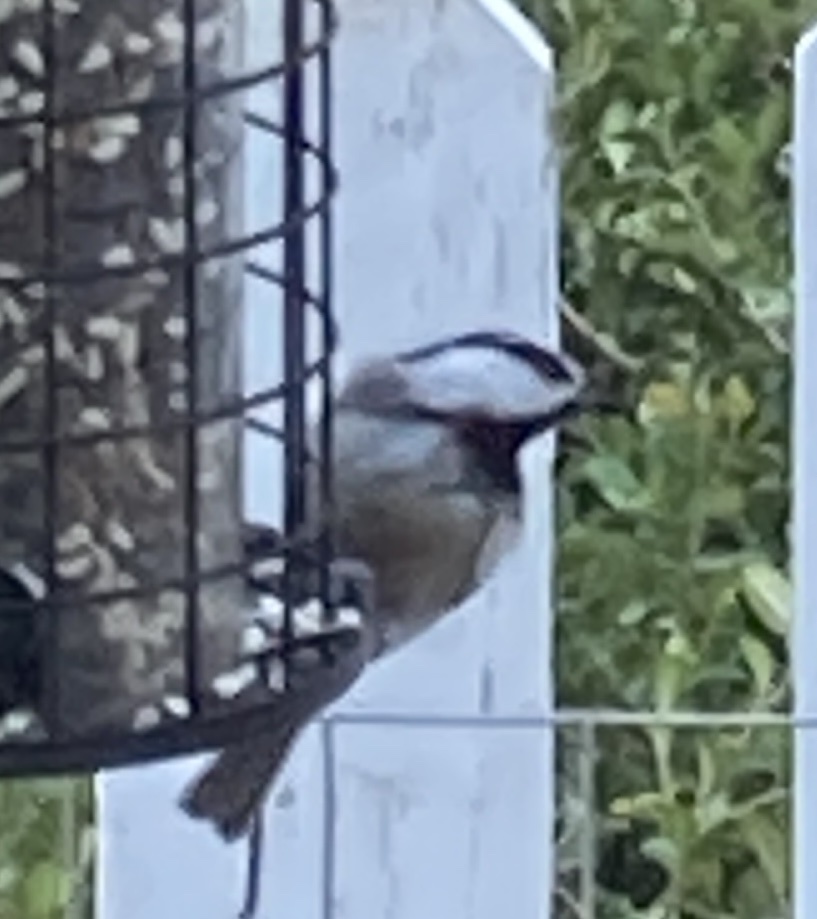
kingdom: Animalia
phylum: Chordata
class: Aves
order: Passeriformes
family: Paridae
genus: Poecile
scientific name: Poecile gambeli
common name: Mountain chickadee
